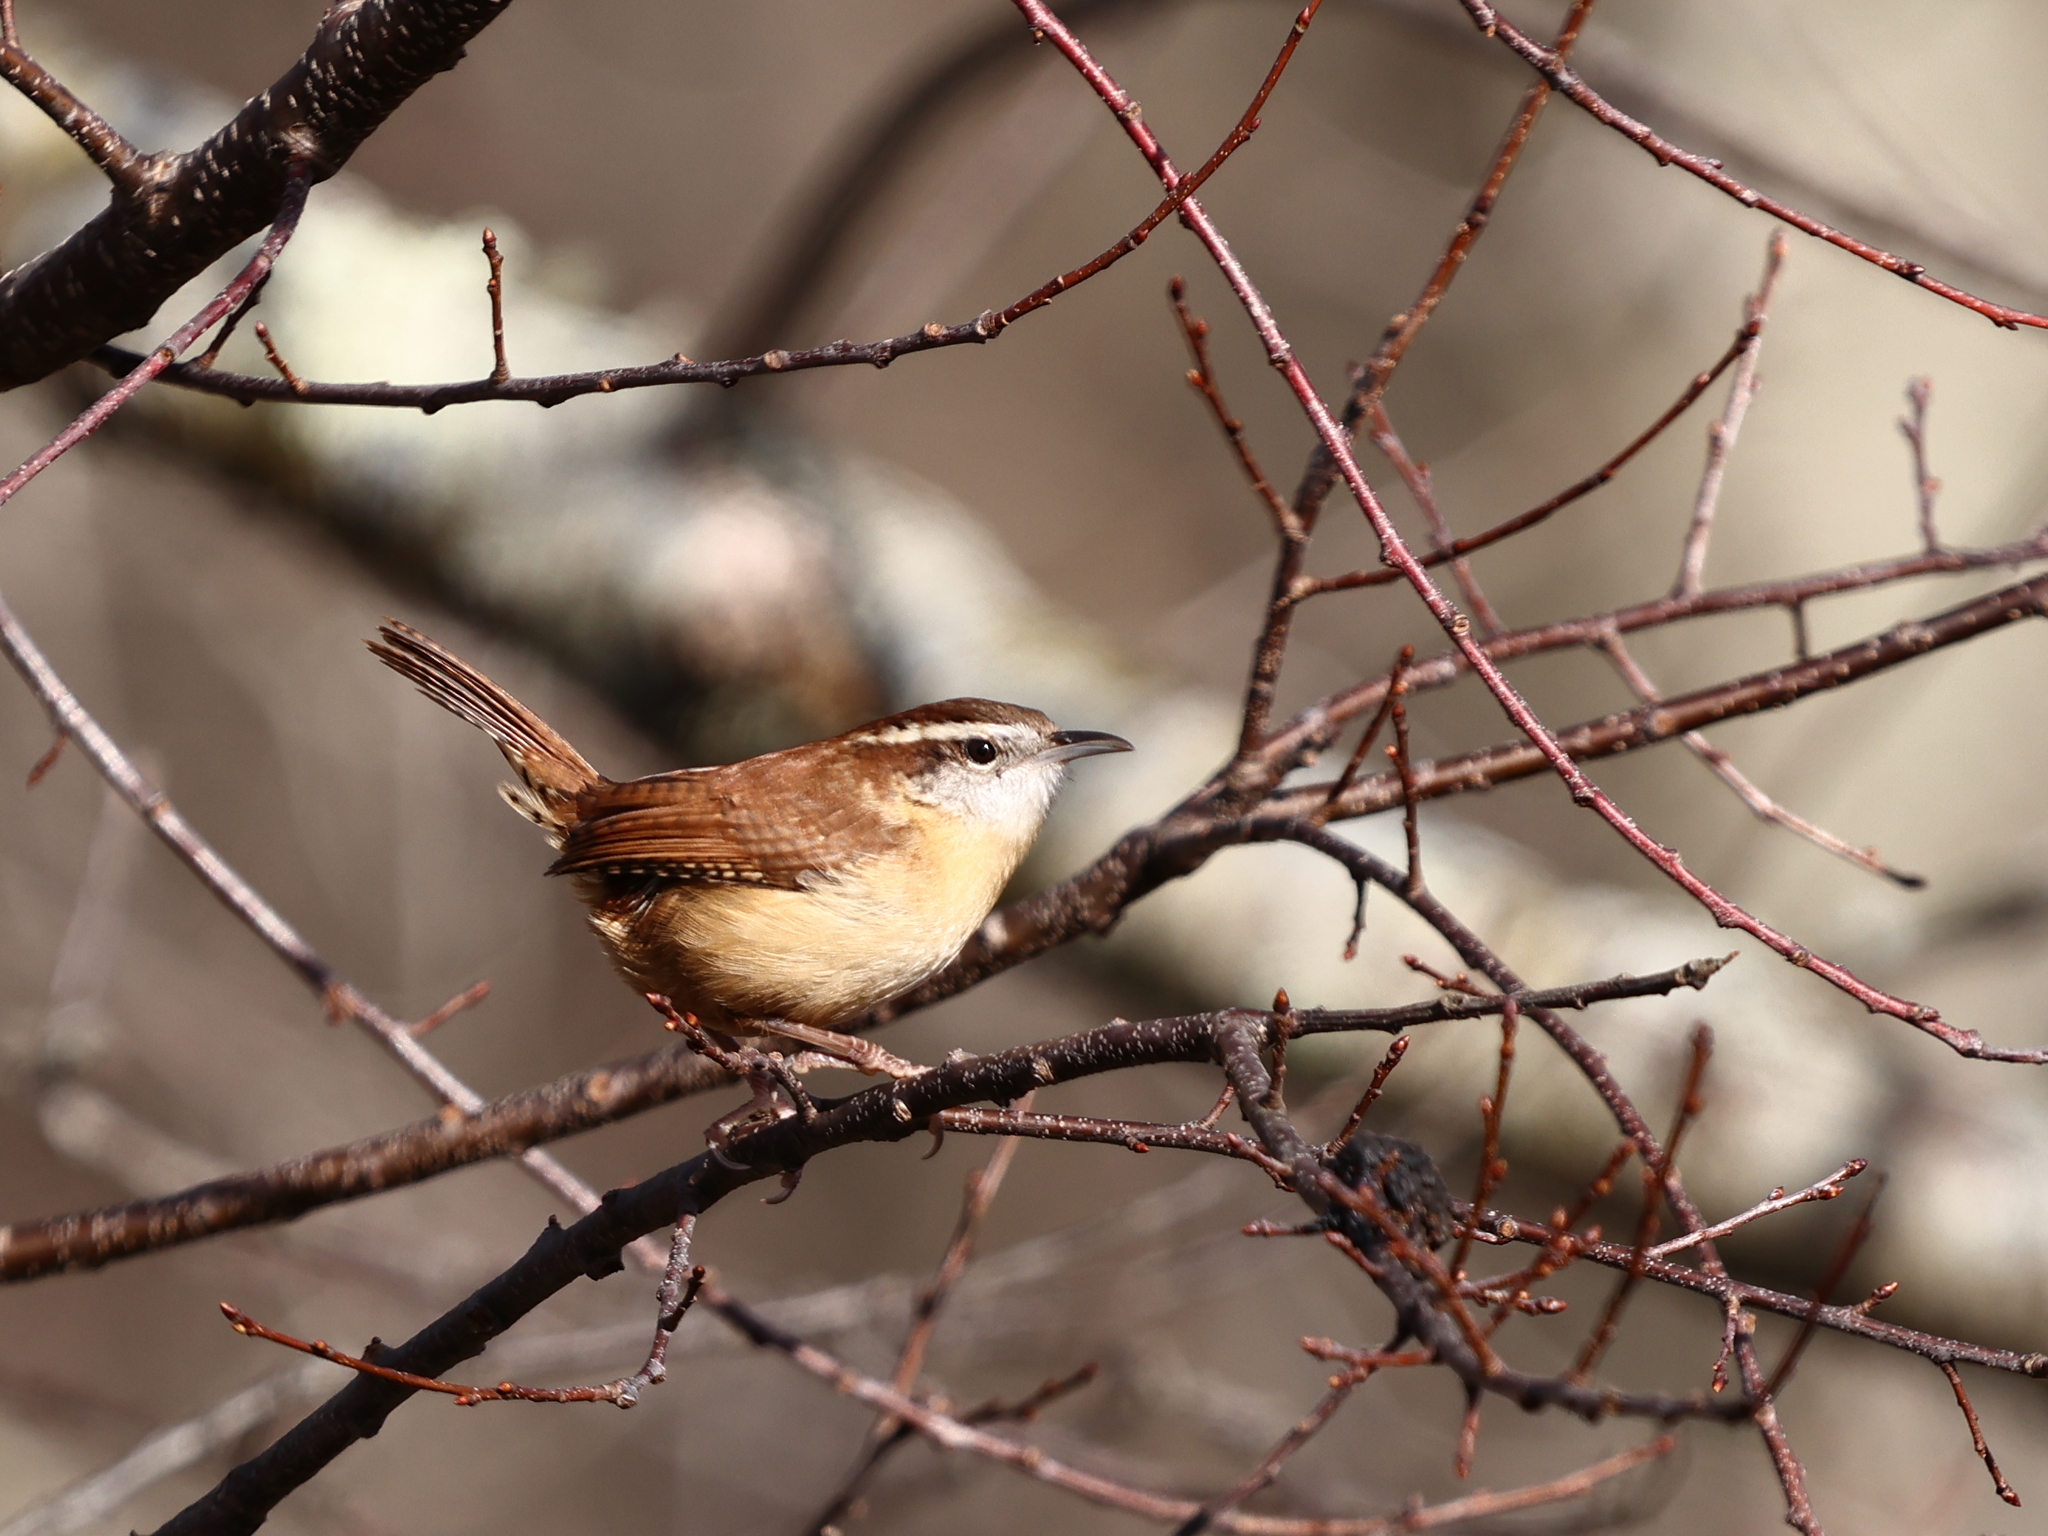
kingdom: Animalia
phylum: Chordata
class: Aves
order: Passeriformes
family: Troglodytidae
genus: Thryothorus
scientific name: Thryothorus ludovicianus
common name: Carolina wren
